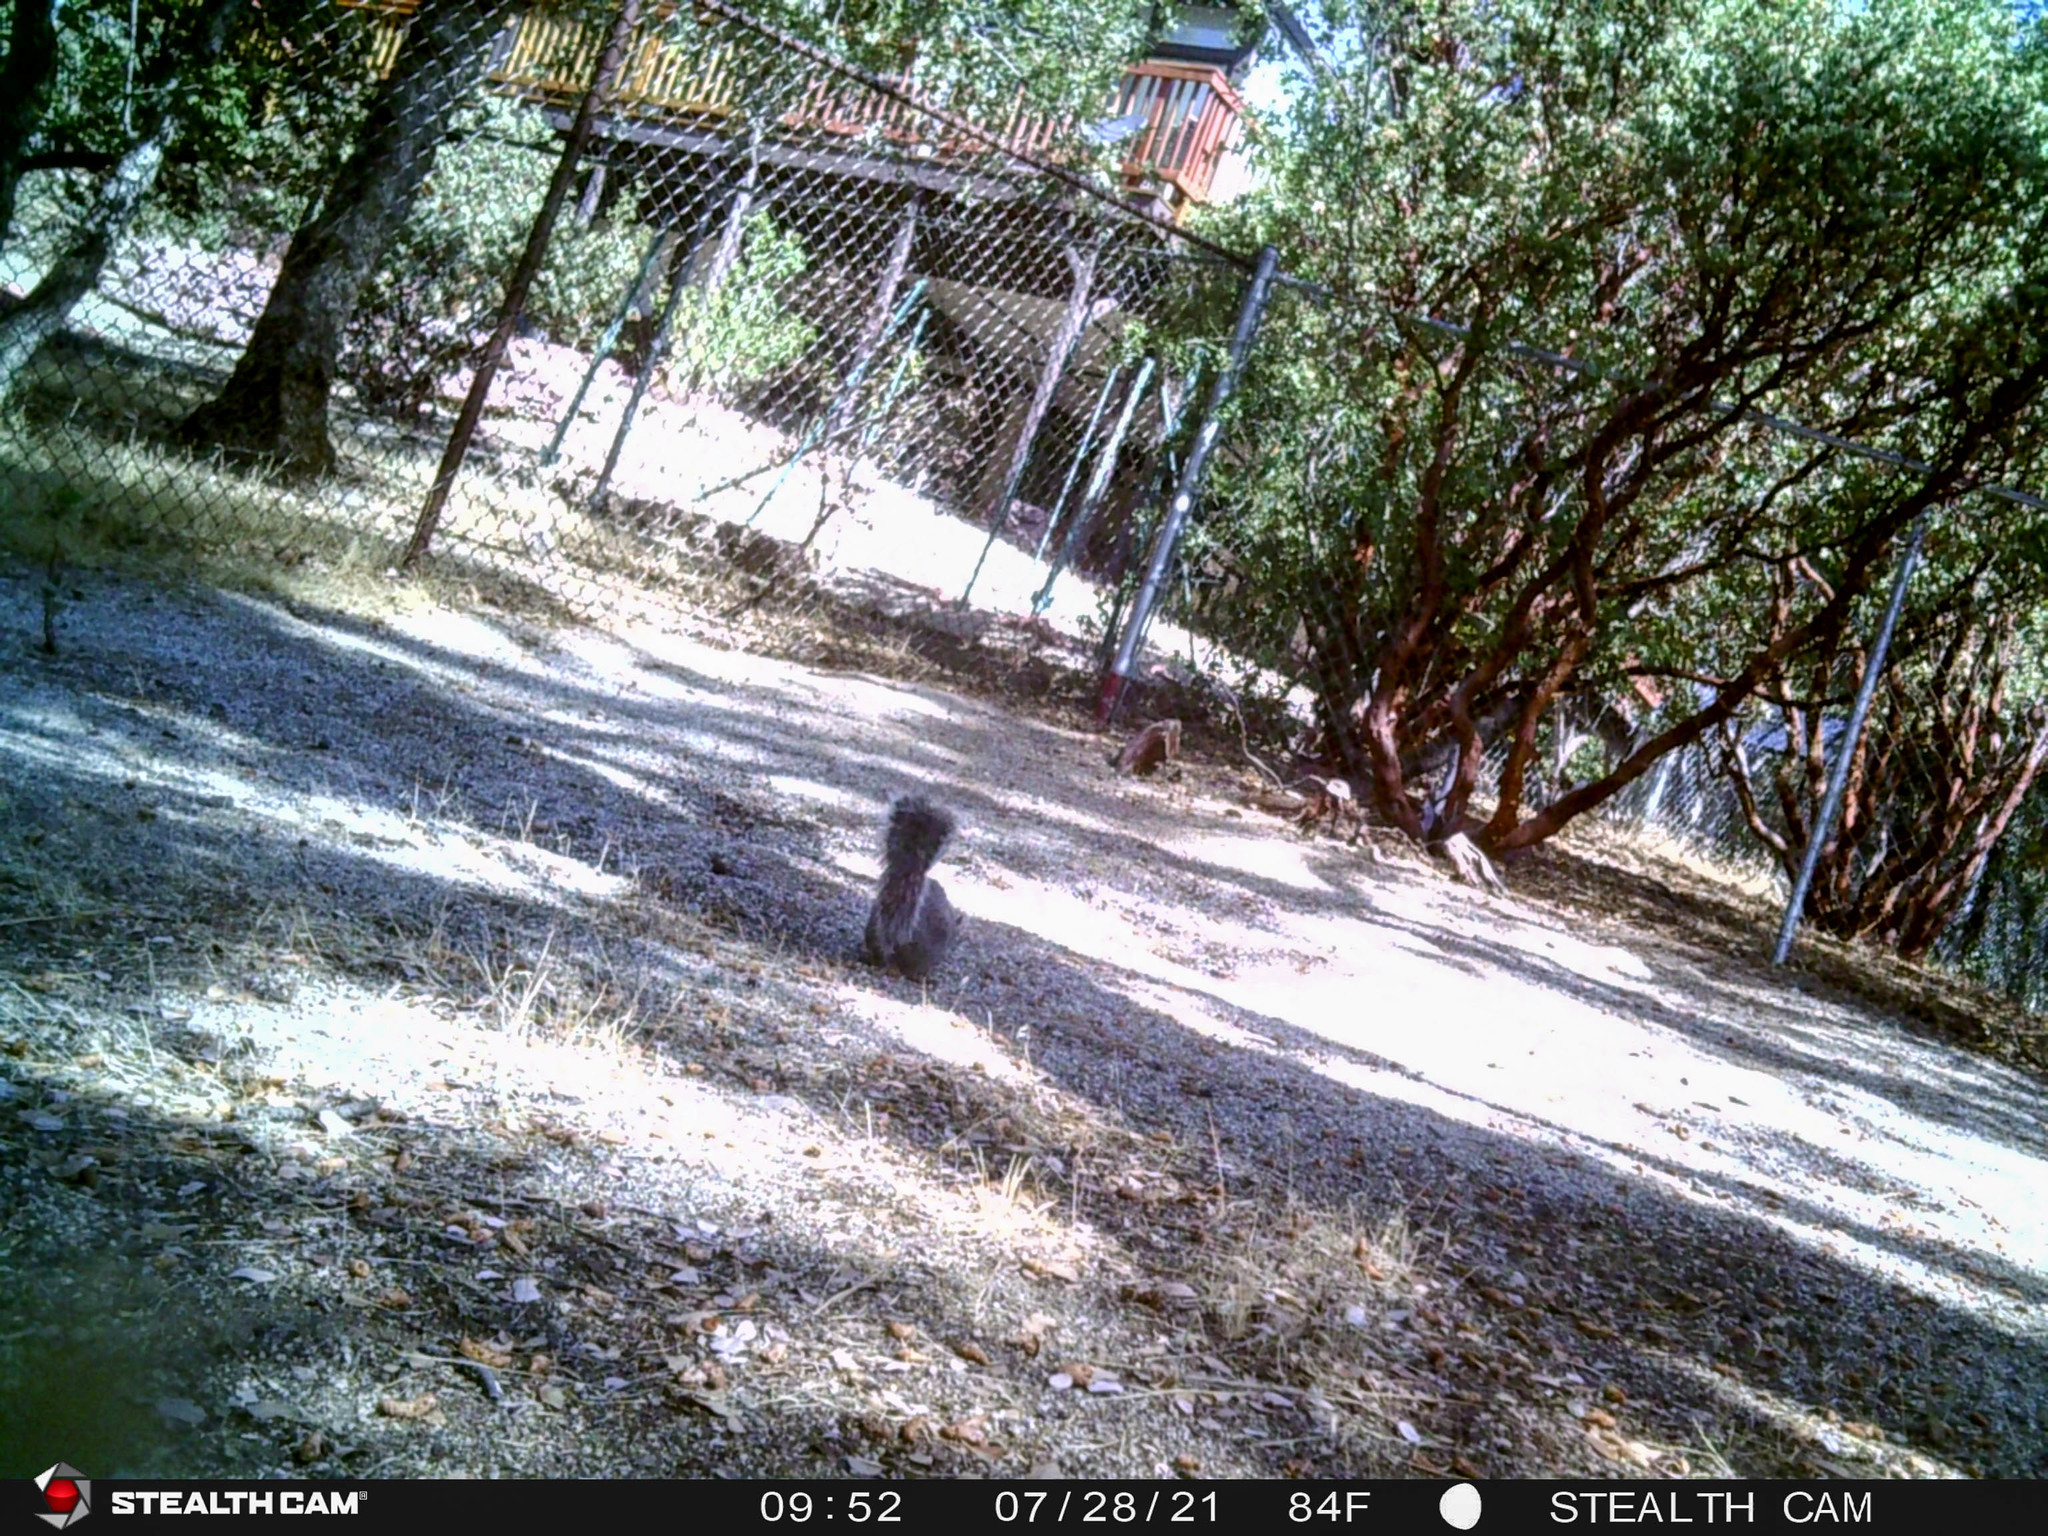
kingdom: Animalia
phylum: Chordata
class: Mammalia
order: Rodentia
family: Sciuridae
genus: Sciurus
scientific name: Sciurus griseus
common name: Western gray squirrel
